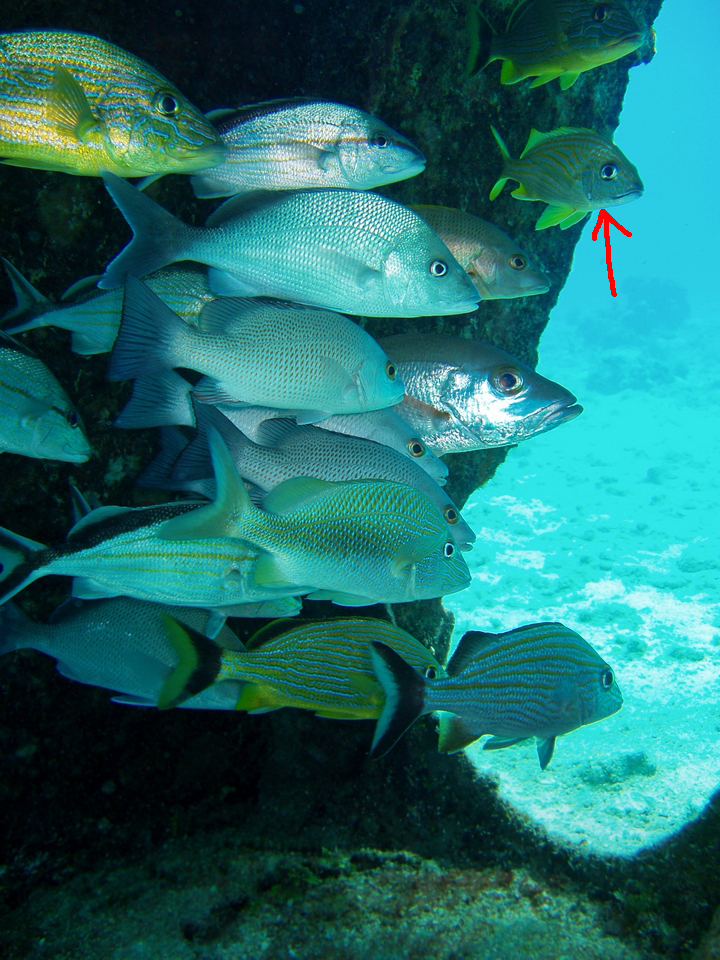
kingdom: Animalia
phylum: Chordata
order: Perciformes
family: Haemulidae
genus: Haemulon
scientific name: Haemulon flavolineatum
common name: French grunt
